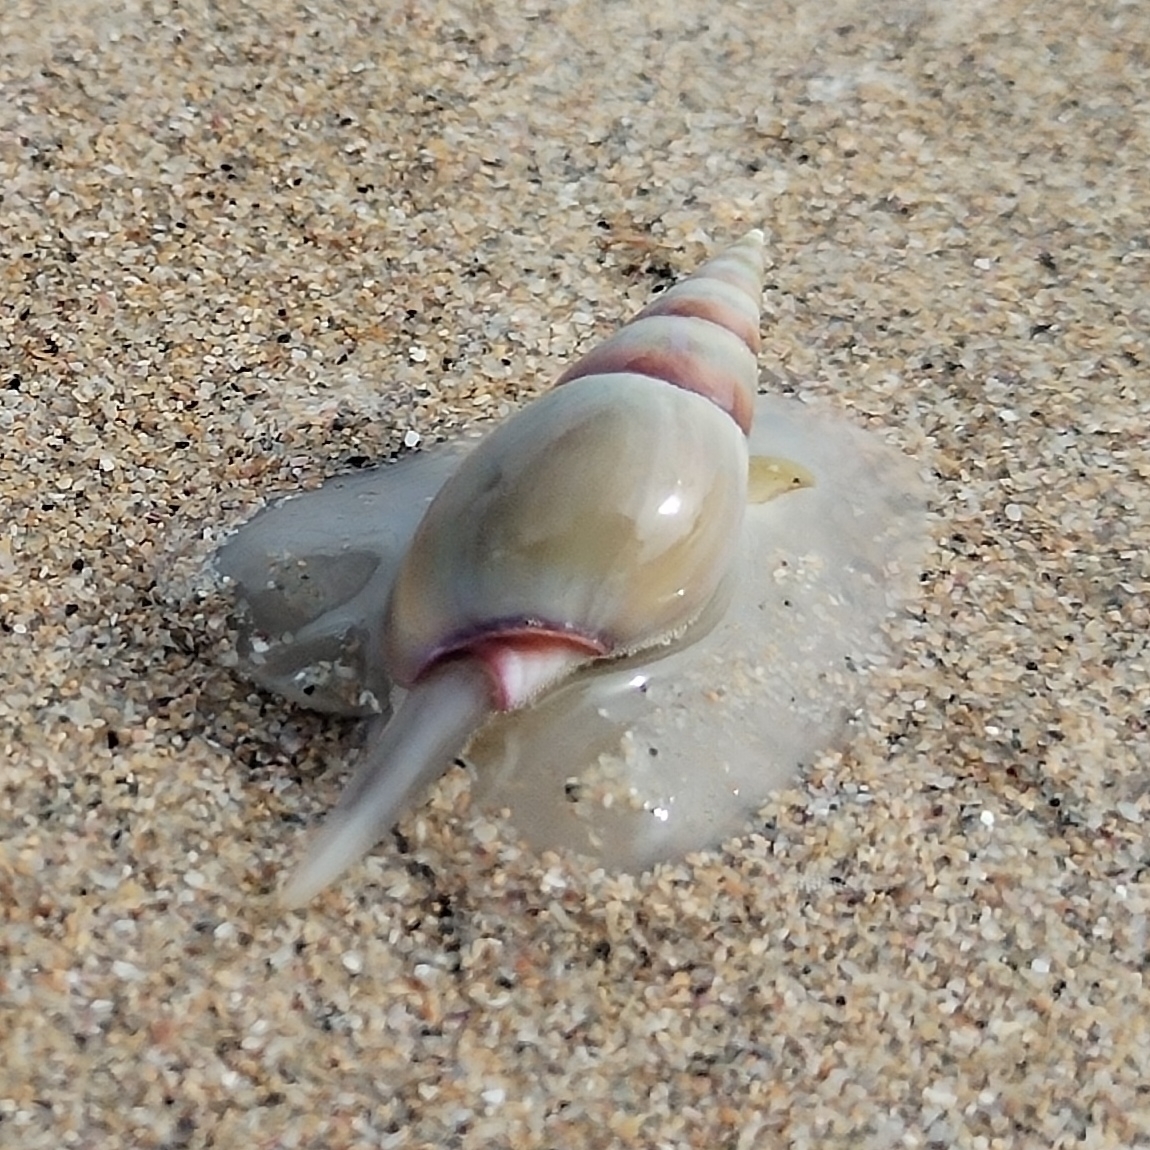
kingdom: Animalia
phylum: Mollusca
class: Gastropoda
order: Neogastropoda
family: Nassariidae
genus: Bullia
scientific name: Bullia rhodostoma
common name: Smooth plough shell
